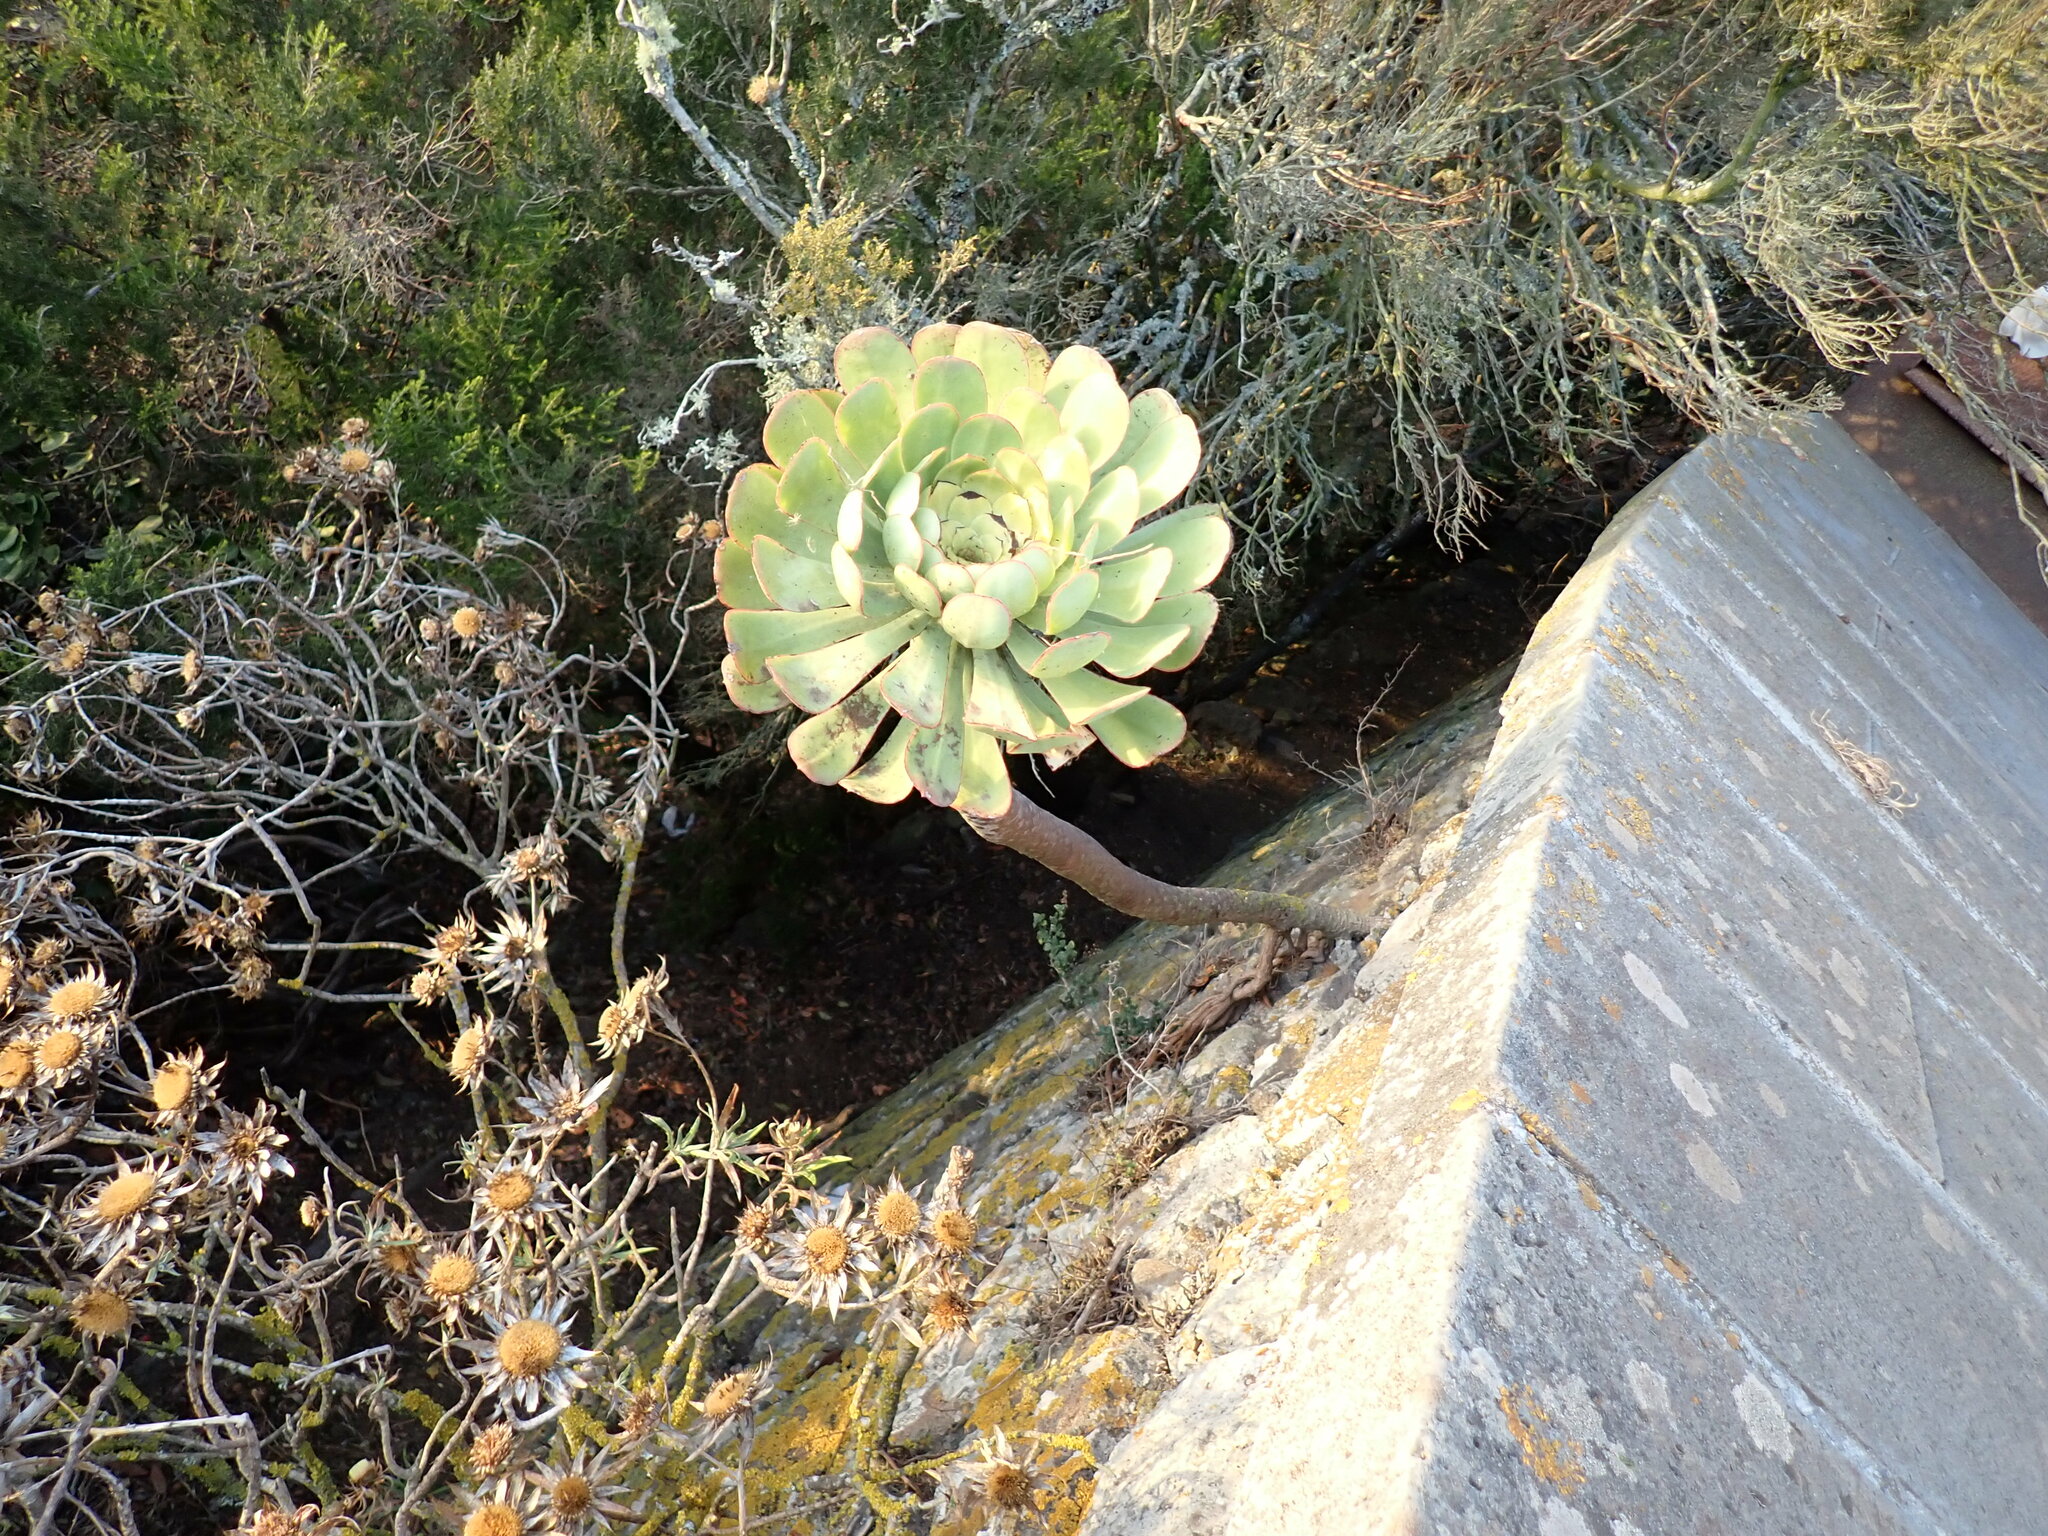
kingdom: Plantae
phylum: Tracheophyta
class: Magnoliopsida
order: Saxifragales
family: Crassulaceae
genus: Aeonium
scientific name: Aeonium urbicum
